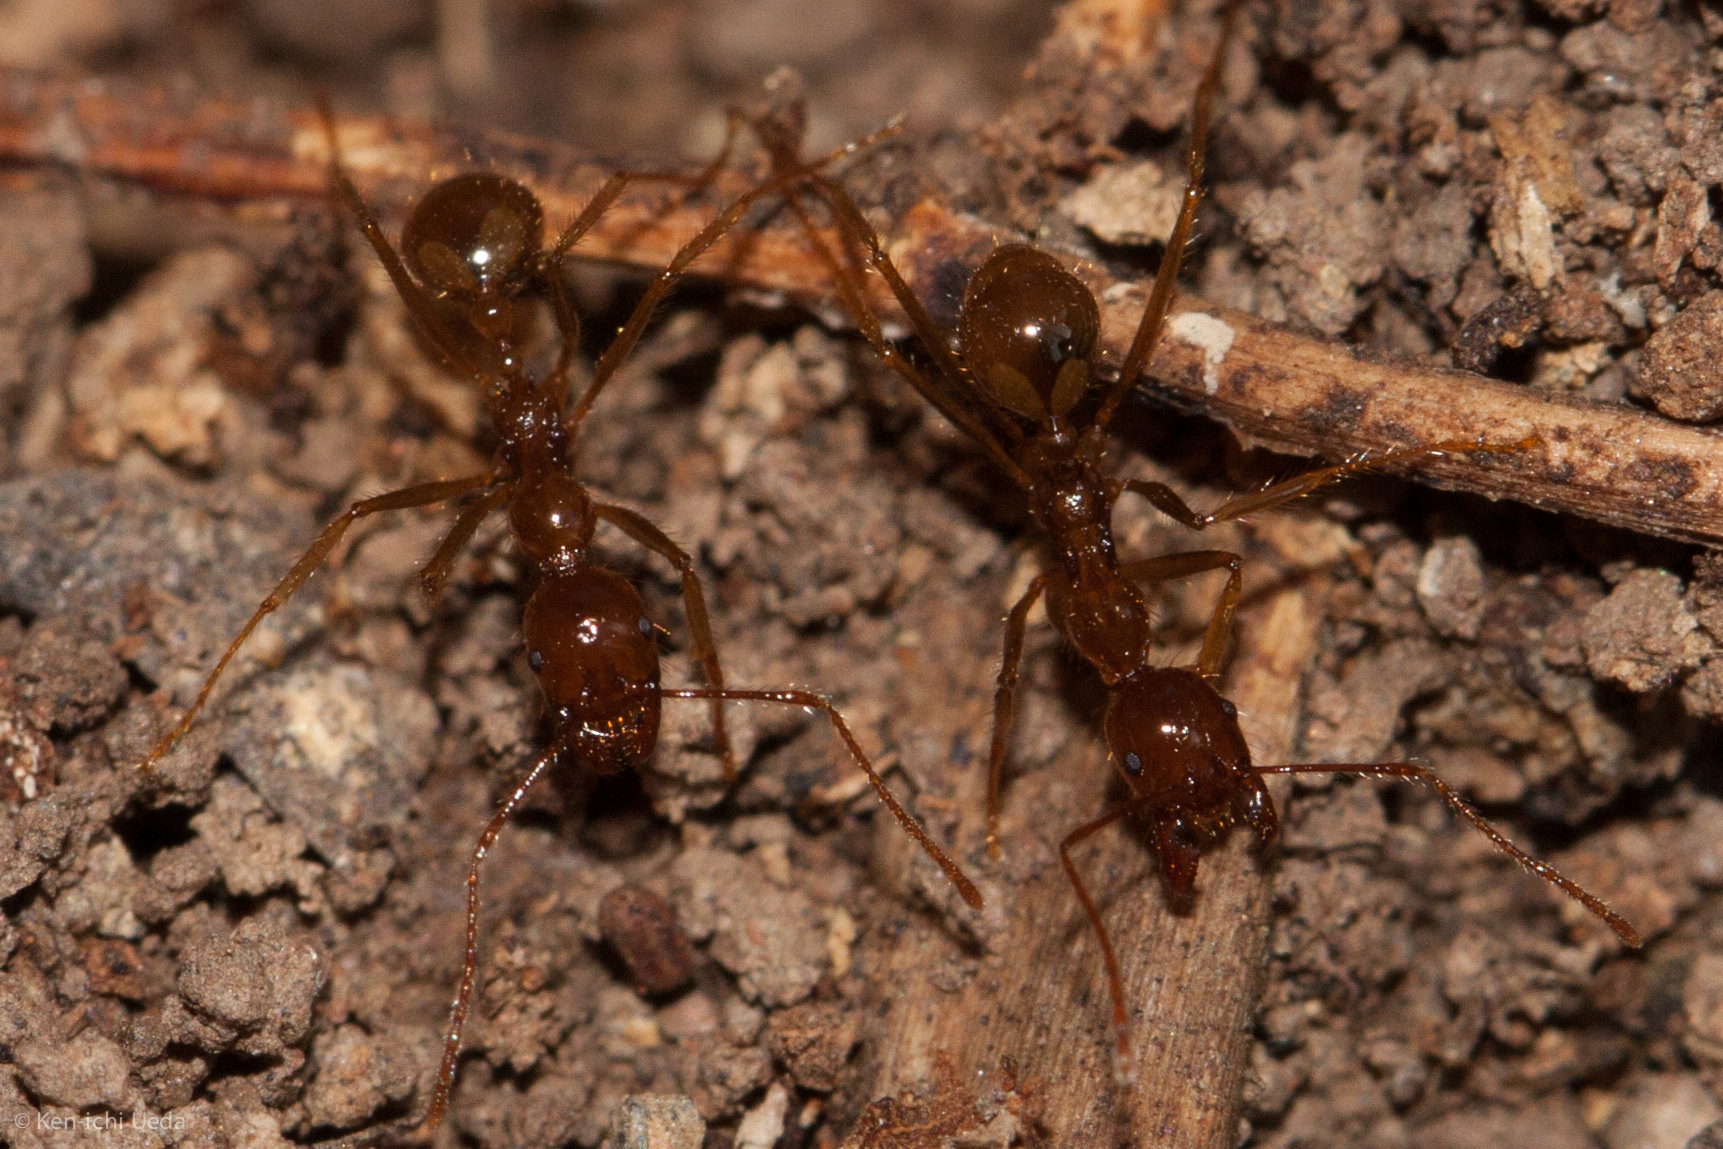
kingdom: Animalia
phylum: Arthropoda
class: Insecta
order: Hymenoptera
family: Formicidae
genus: Aphaenogaster
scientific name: Aphaenogaster longiceps
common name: Funnel ant
